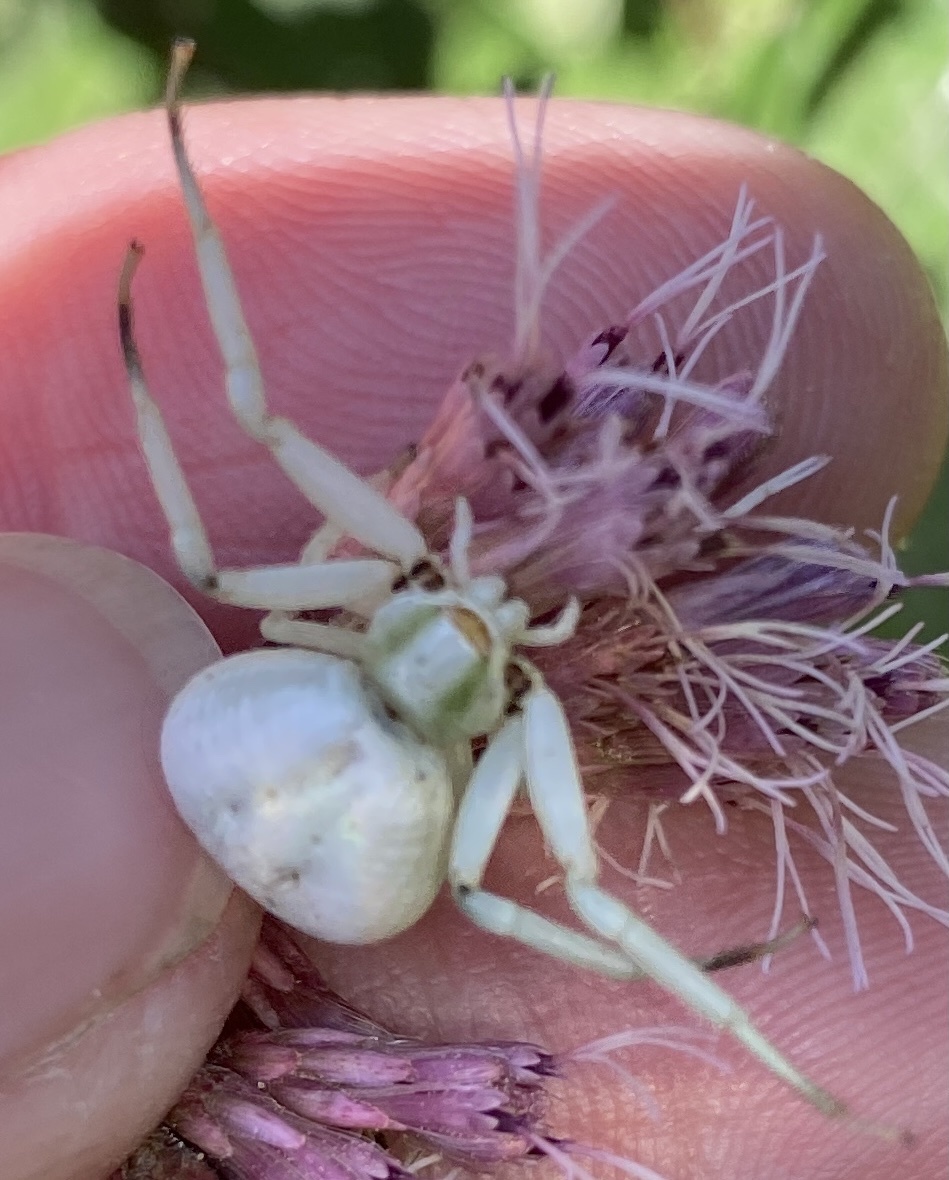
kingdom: Animalia
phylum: Arthropoda
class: Arachnida
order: Araneae
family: Thomisidae
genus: Misumenoides
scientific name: Misumenoides formosipes
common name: White-banded crab spider
